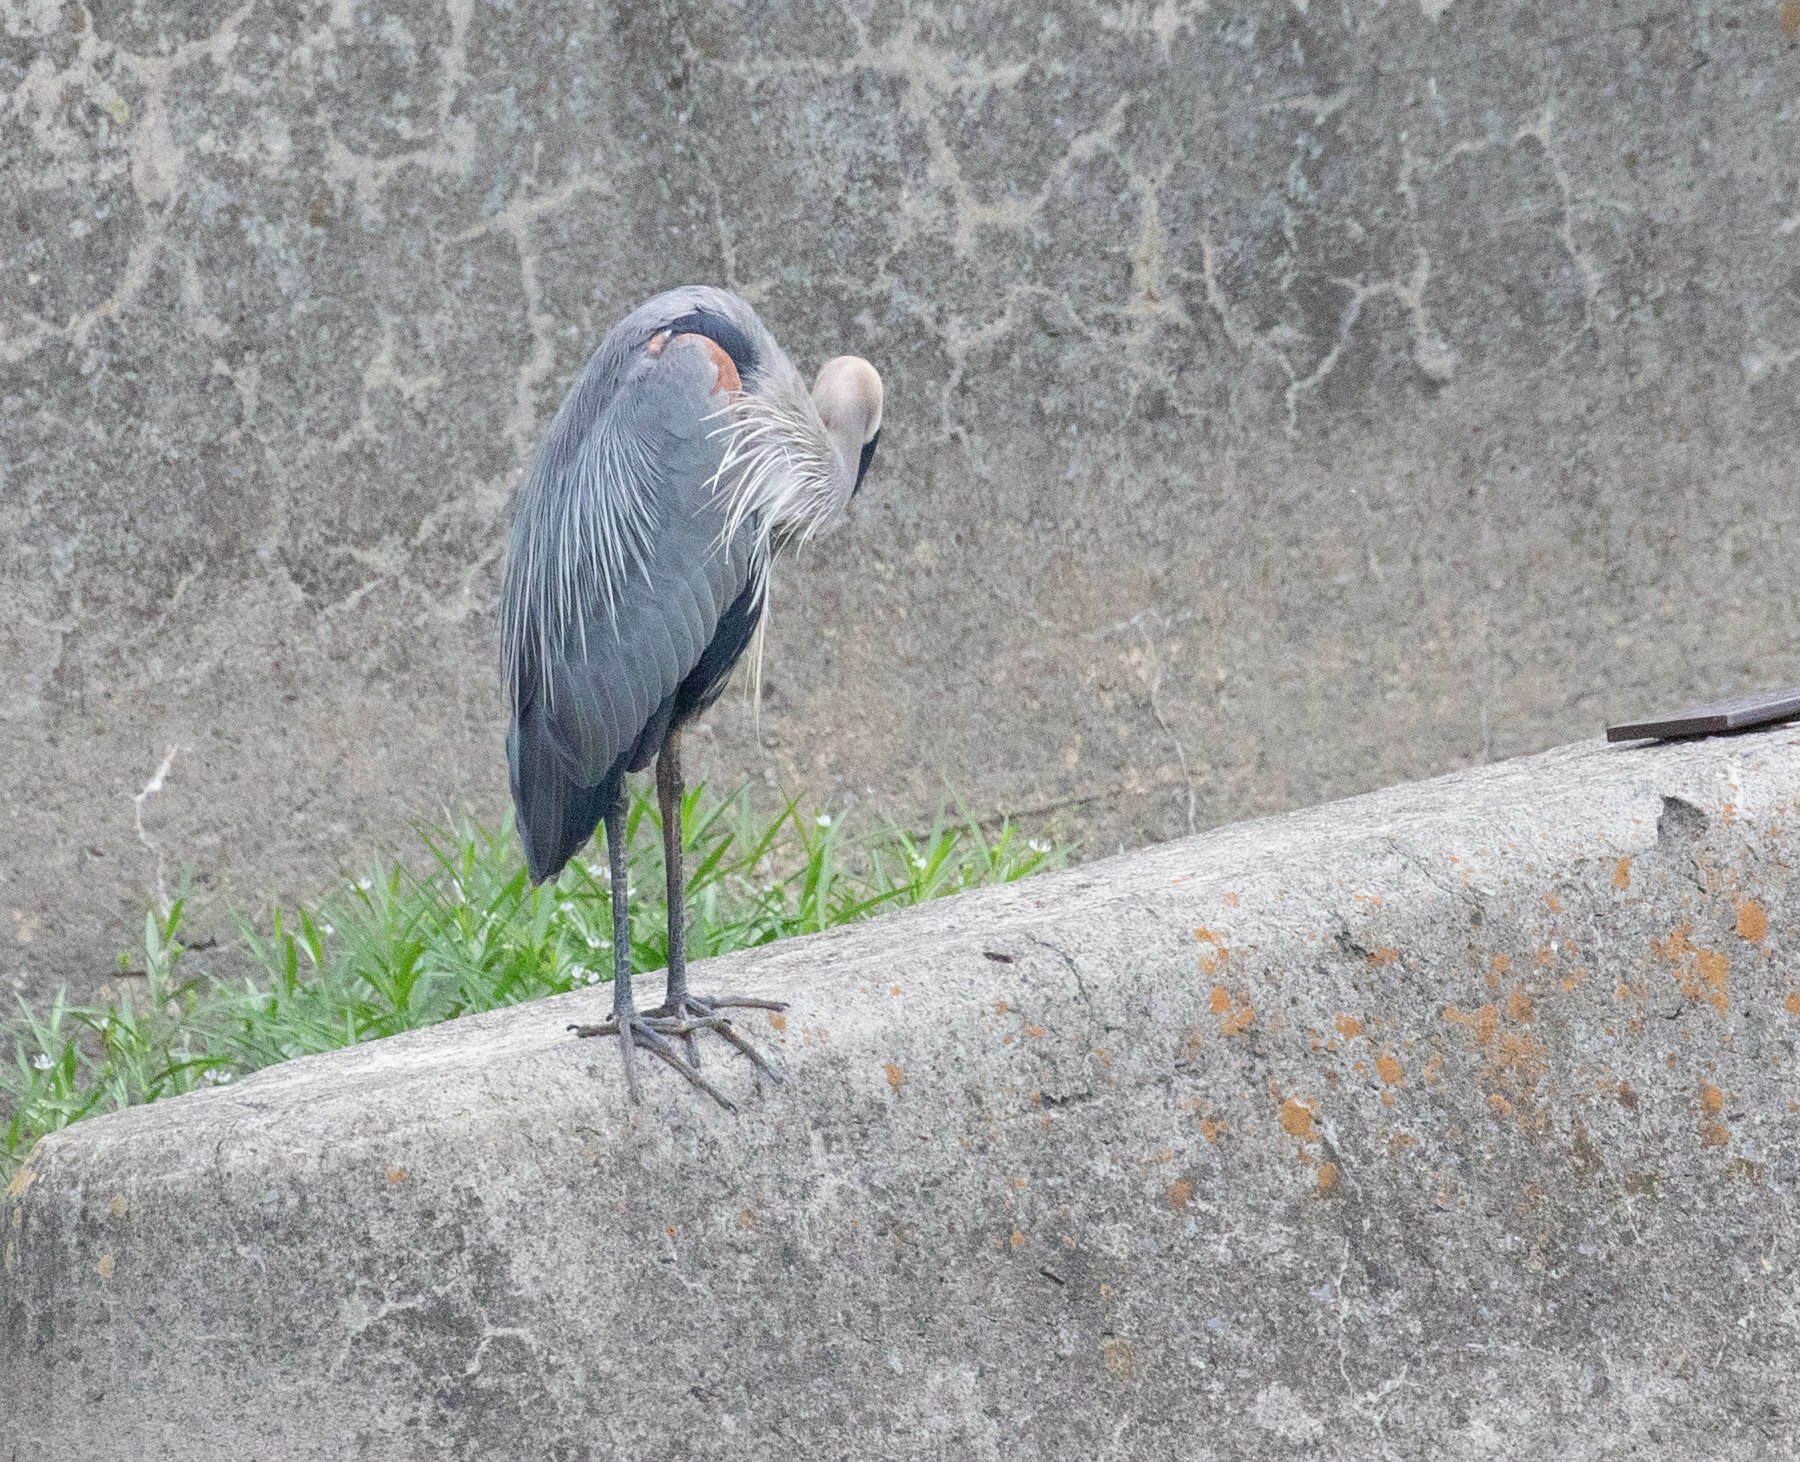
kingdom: Animalia
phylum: Chordata
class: Aves
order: Pelecaniformes
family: Ardeidae
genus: Ardea
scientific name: Ardea herodias
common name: Great blue heron
